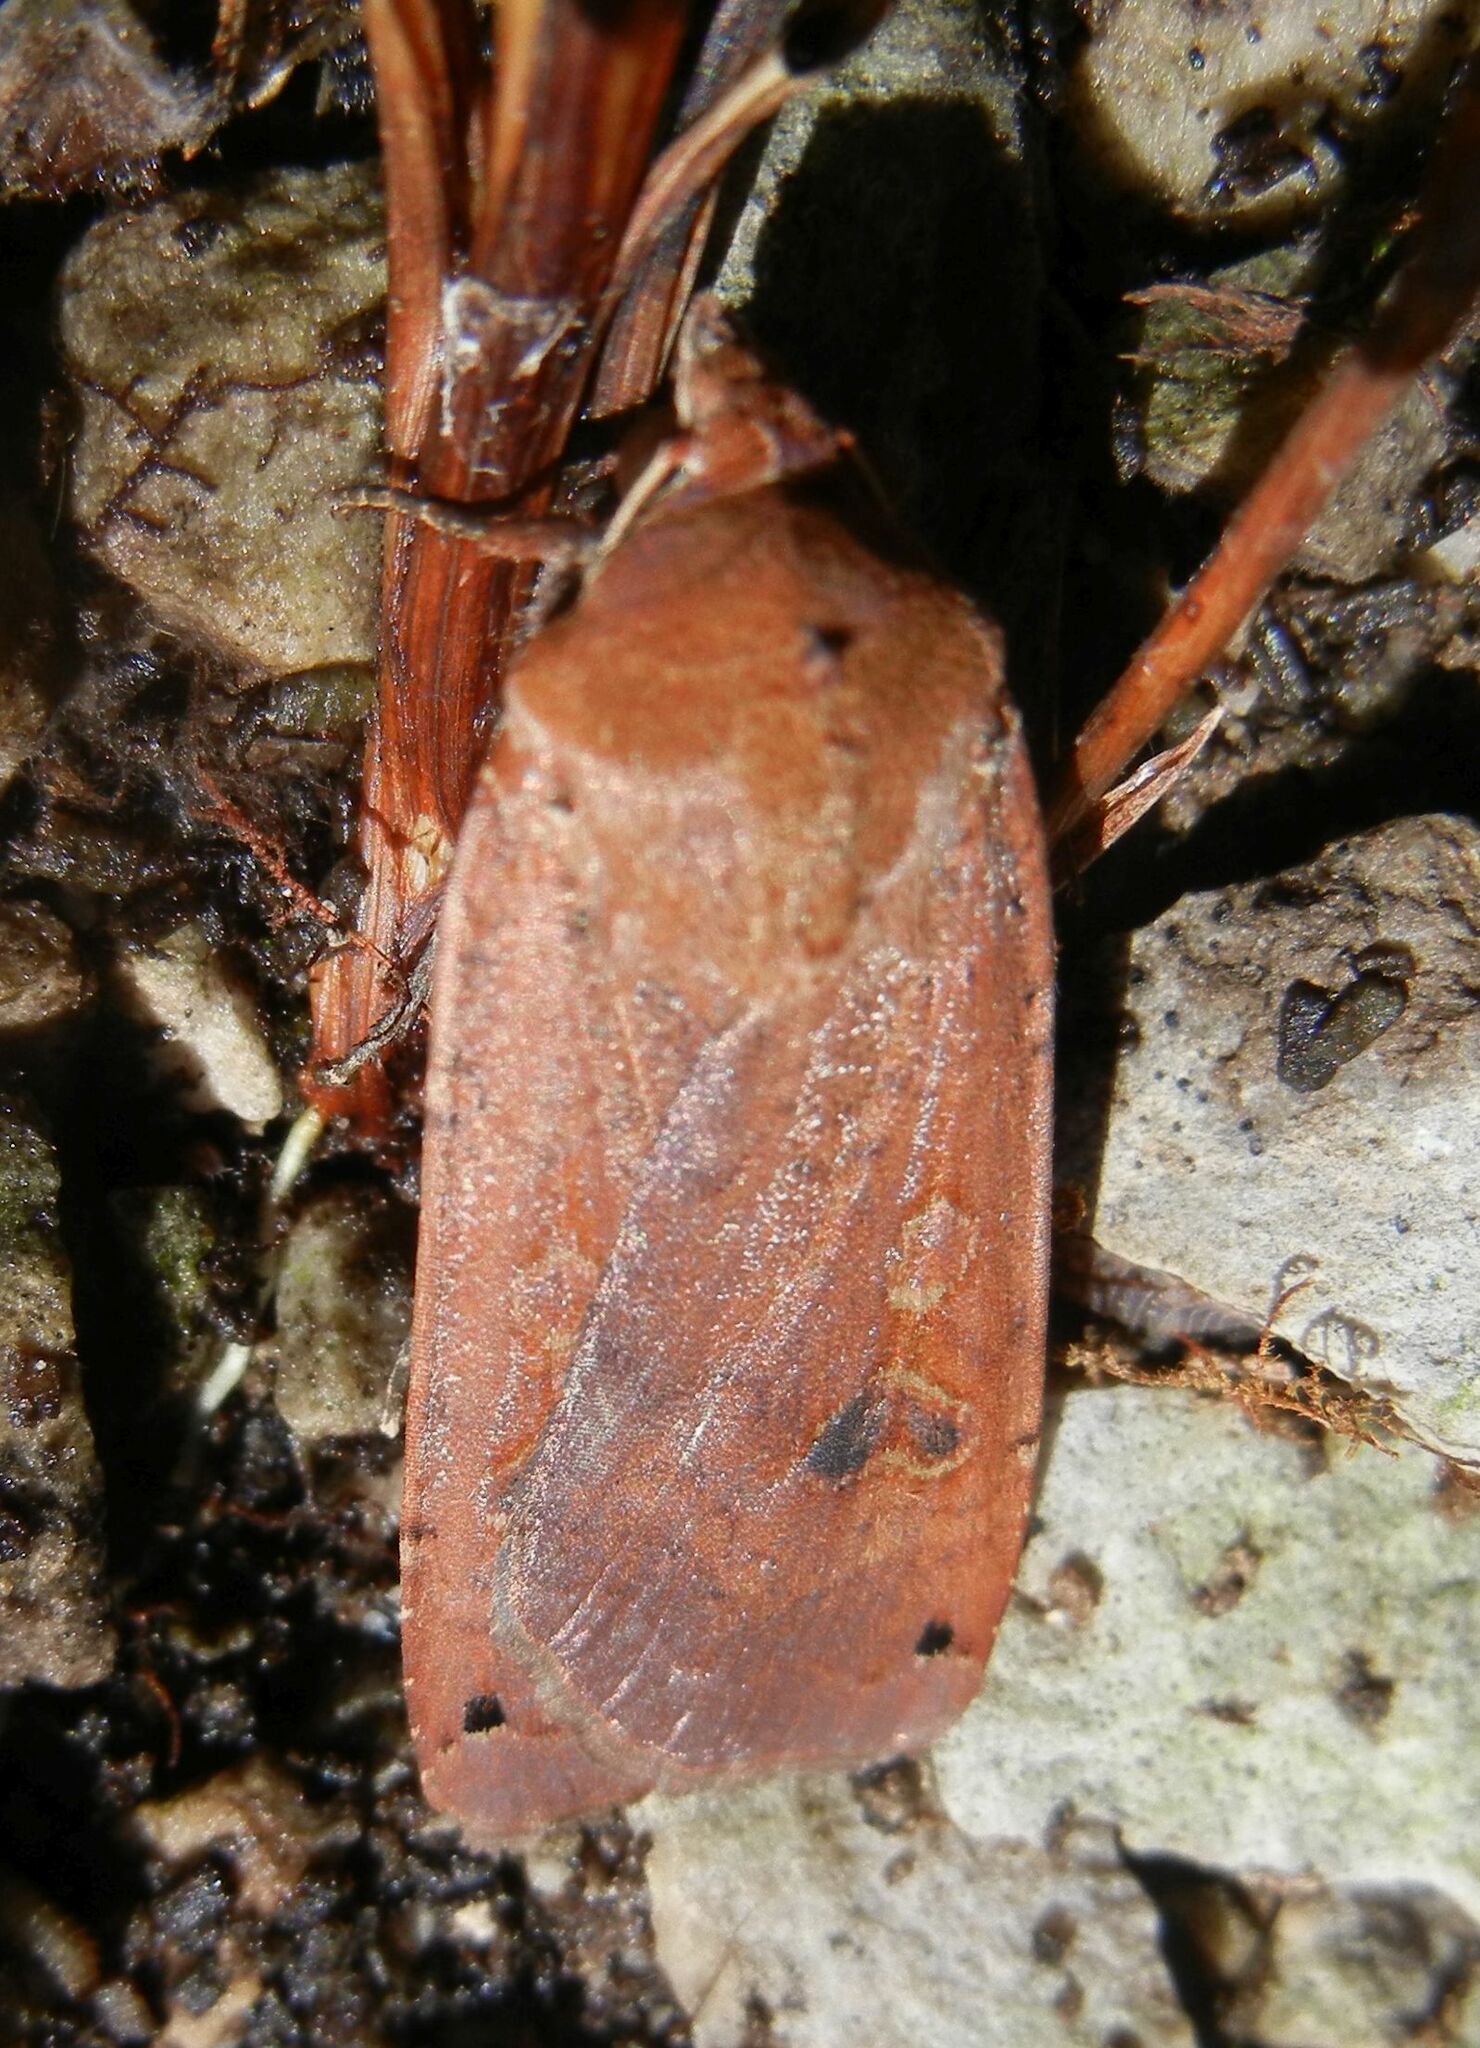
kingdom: Animalia
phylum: Arthropoda
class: Insecta
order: Lepidoptera
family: Noctuidae
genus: Noctua
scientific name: Noctua pronuba
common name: Large yellow underwing
